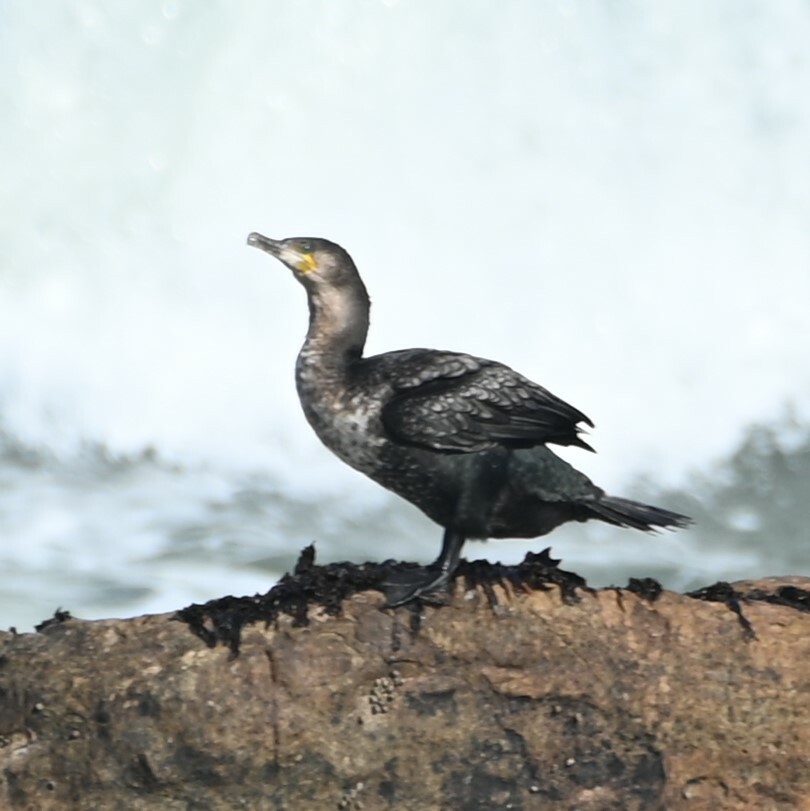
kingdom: Animalia
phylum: Chordata
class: Aves
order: Suliformes
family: Phalacrocoracidae
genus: Phalacrocorax
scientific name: Phalacrocorax carbo
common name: Great cormorant
